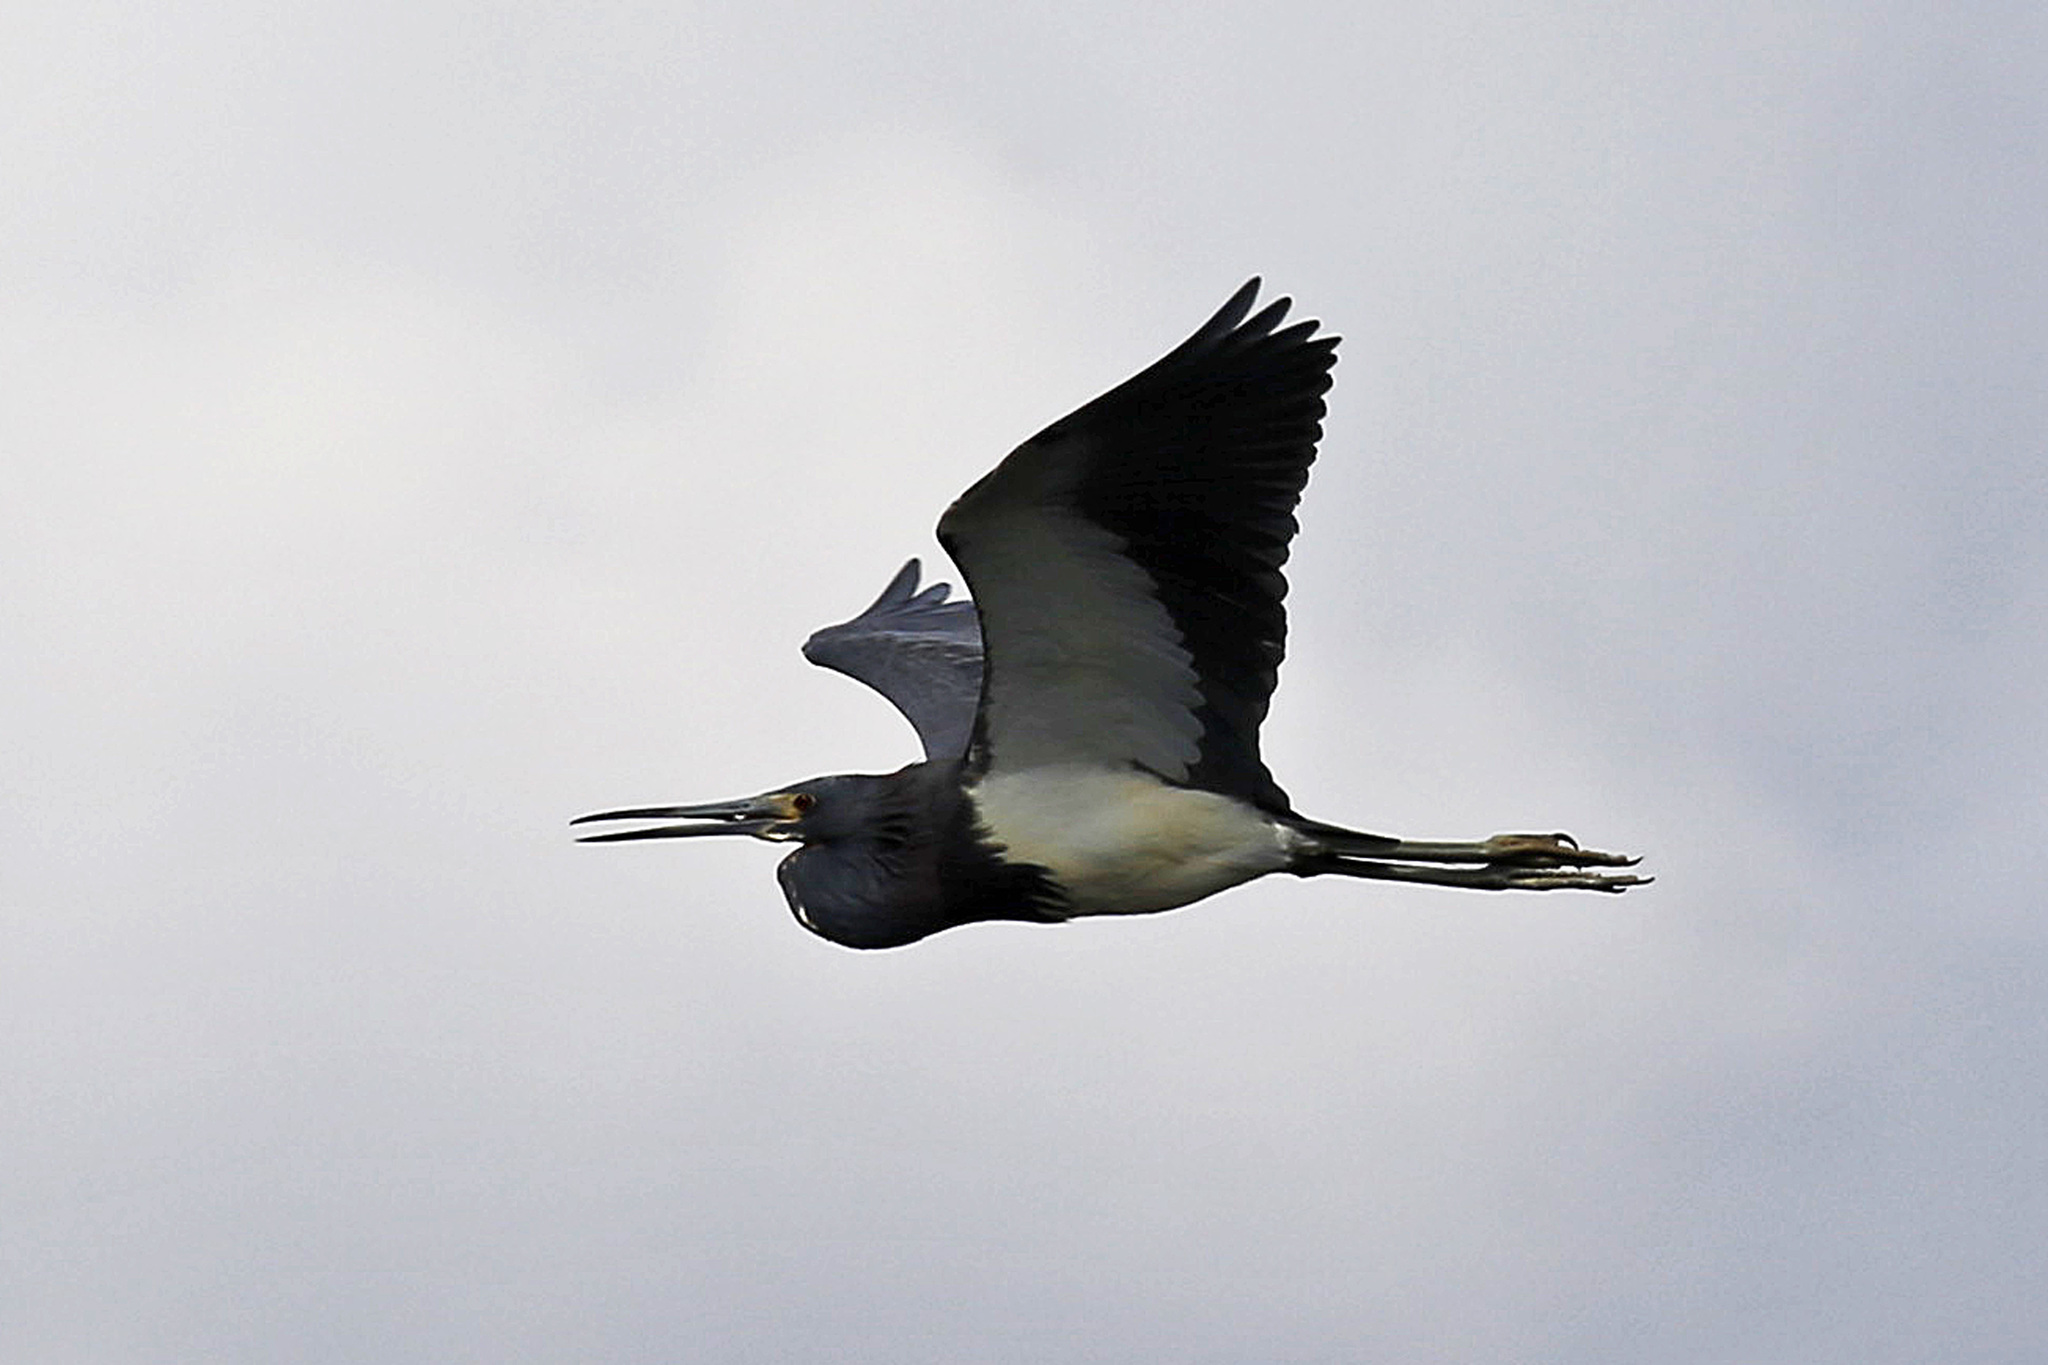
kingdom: Animalia
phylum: Chordata
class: Aves
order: Pelecaniformes
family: Ardeidae
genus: Egretta
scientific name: Egretta tricolor
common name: Tricolored heron
